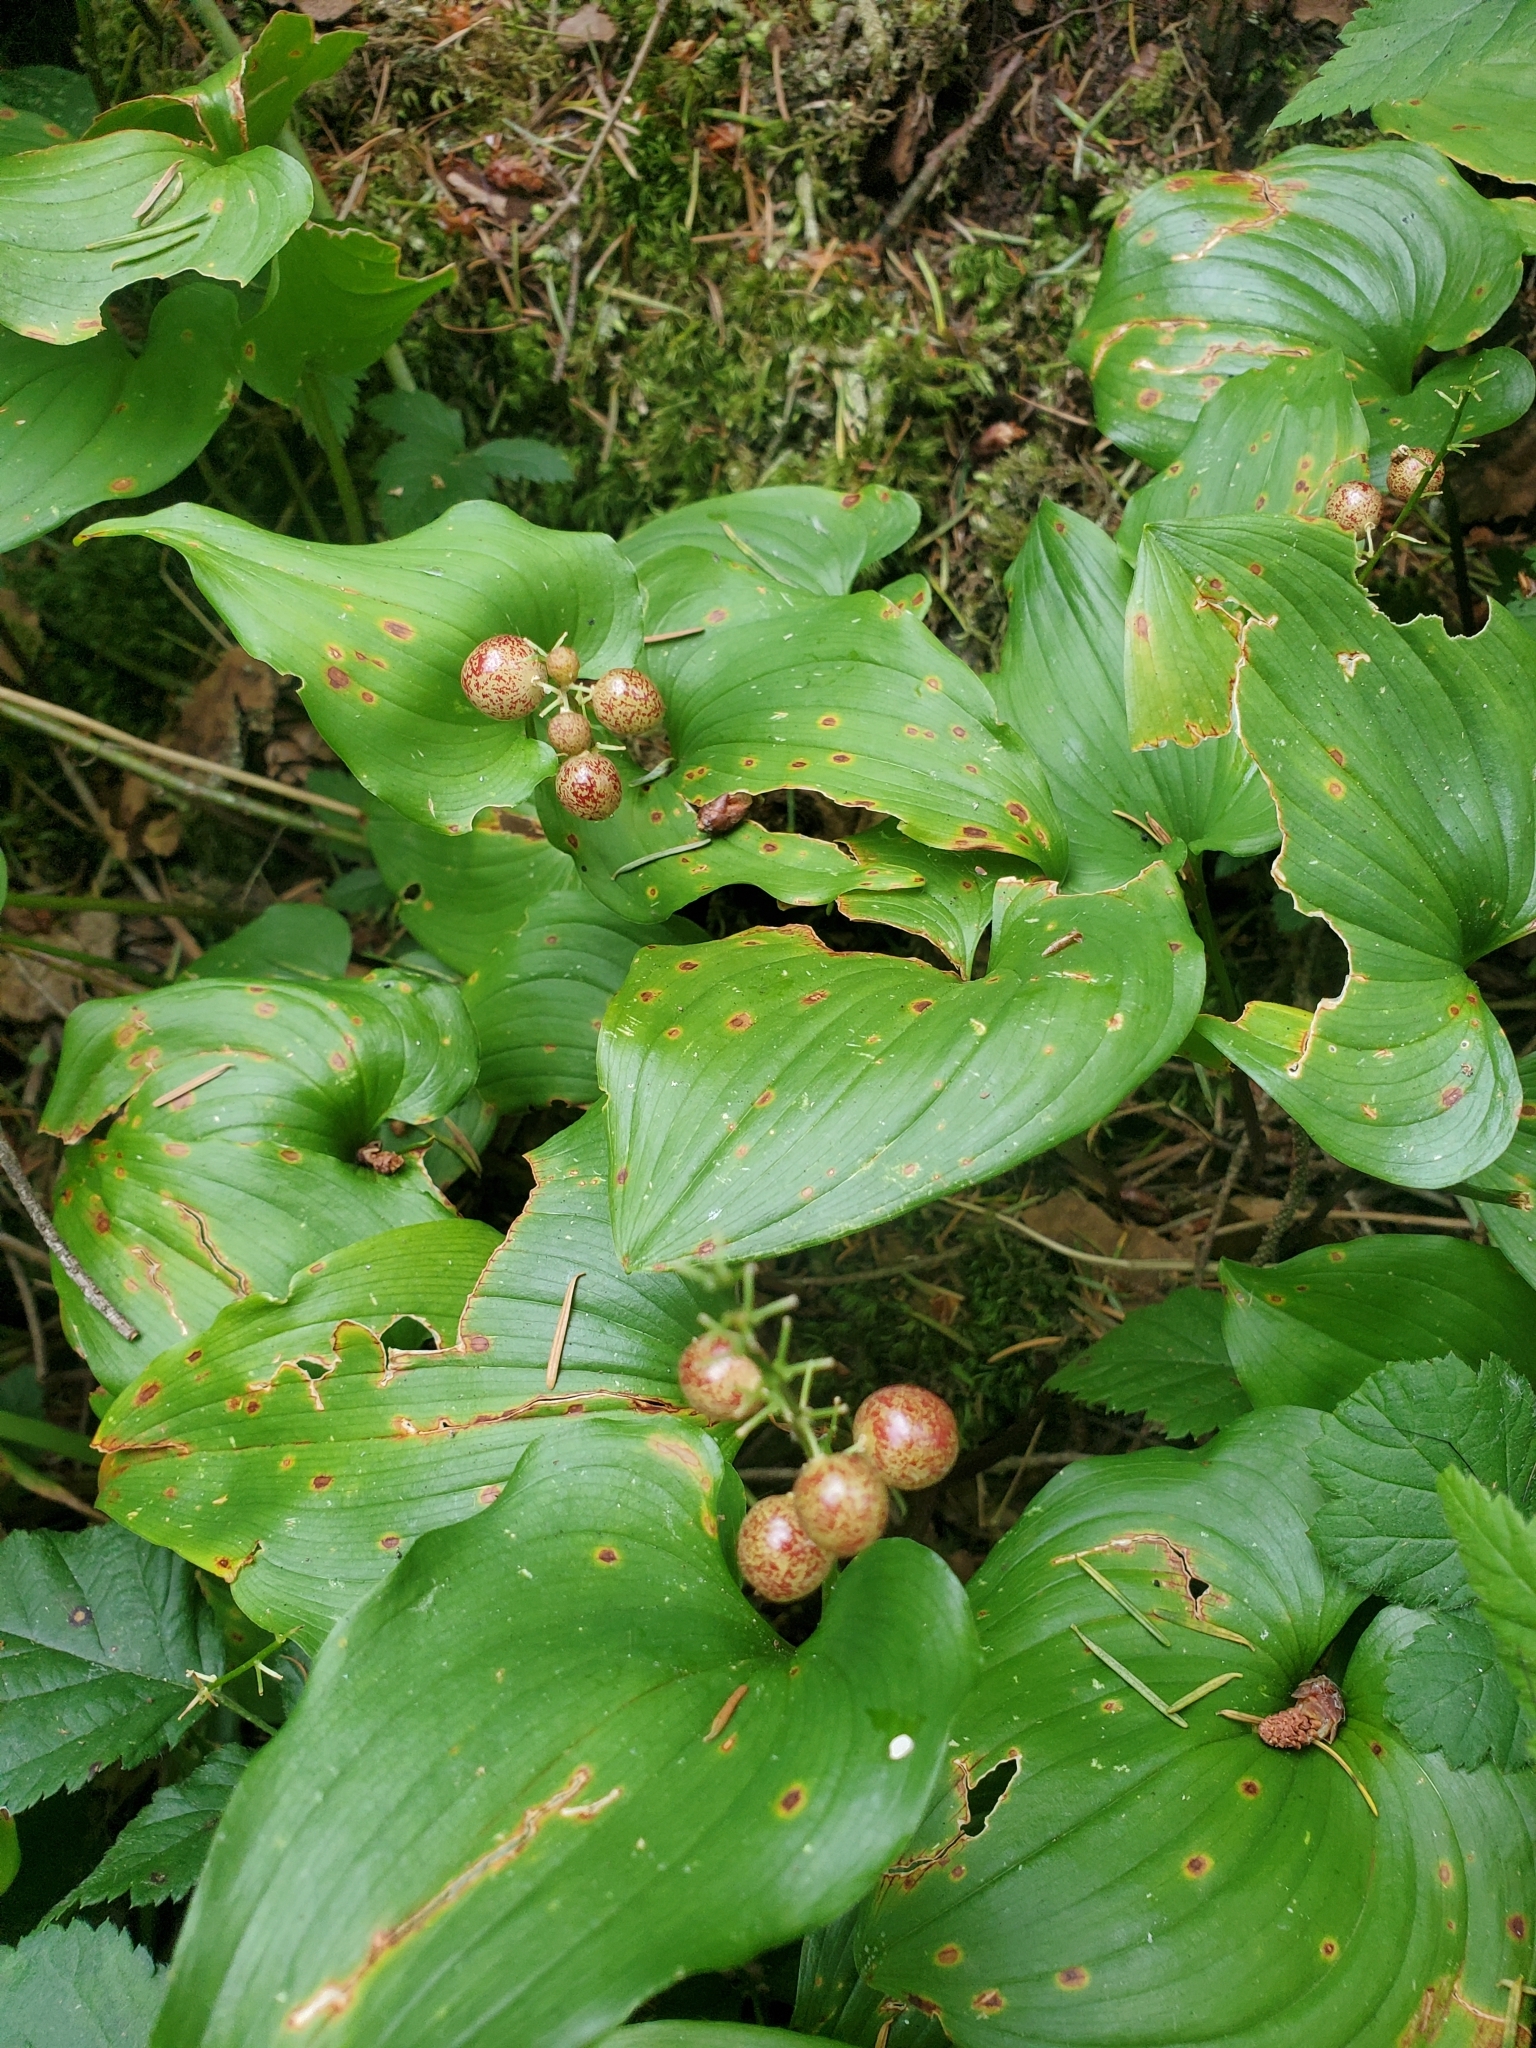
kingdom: Plantae
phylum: Tracheophyta
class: Liliopsida
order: Asparagales
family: Asparagaceae
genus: Maianthemum
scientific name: Maianthemum dilatatum
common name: False lily-of-the-valley
